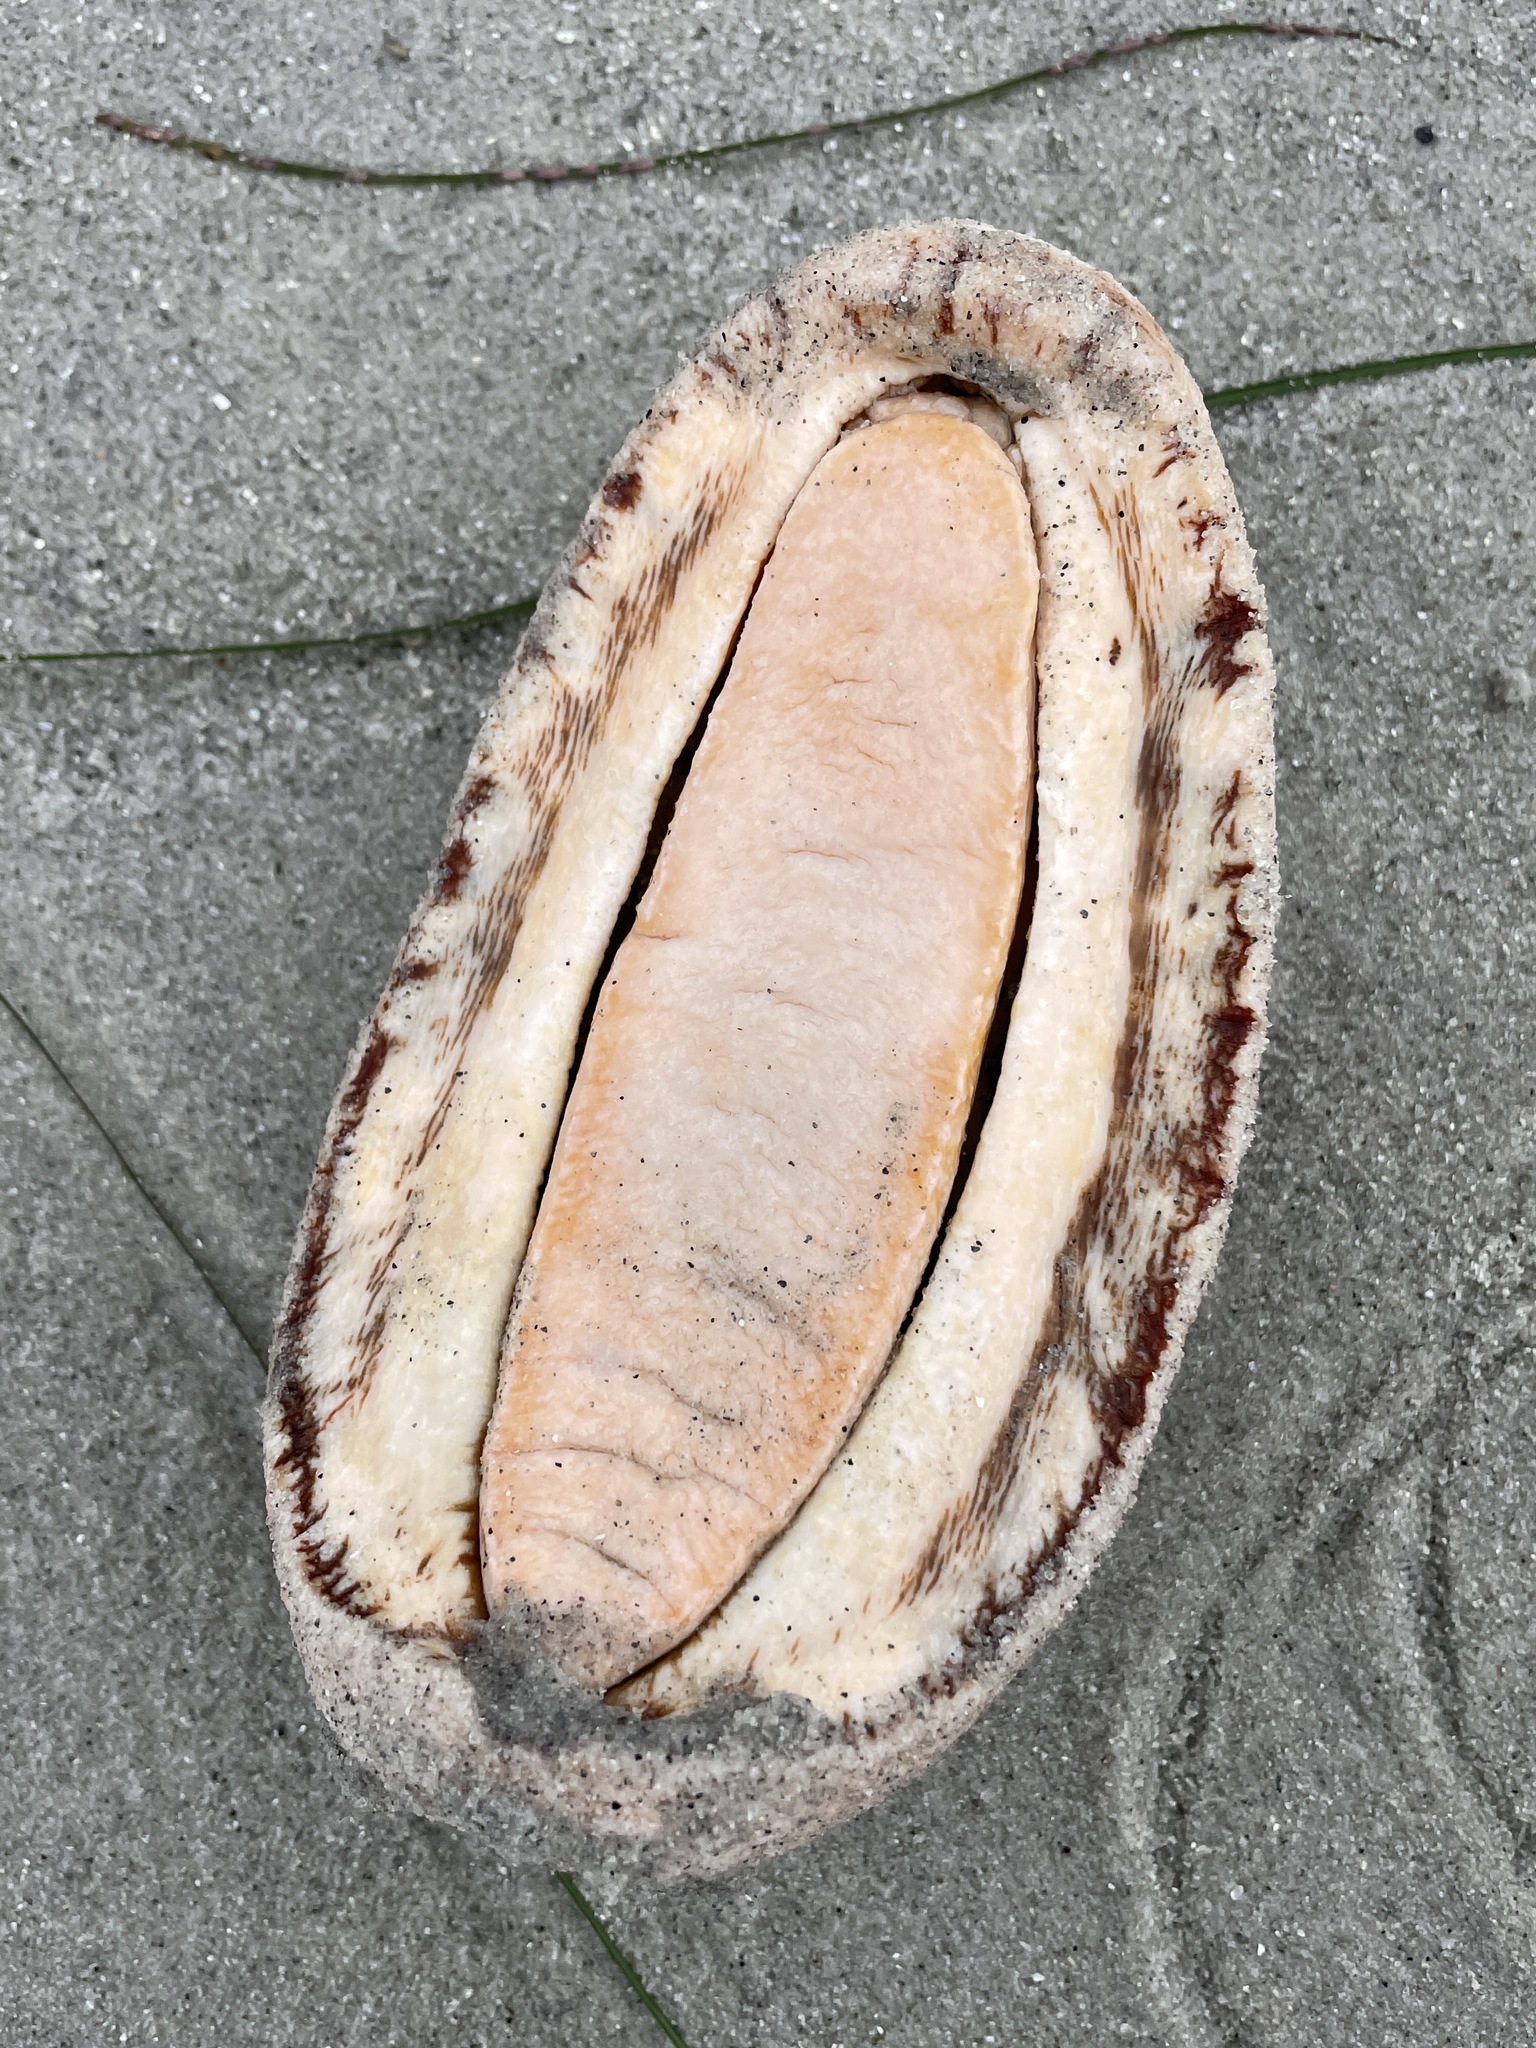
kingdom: Animalia
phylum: Mollusca
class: Polyplacophora
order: Chitonida
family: Acanthochitonidae
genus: Cryptochiton
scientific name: Cryptochiton stelleri
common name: Giant pacific chiton
